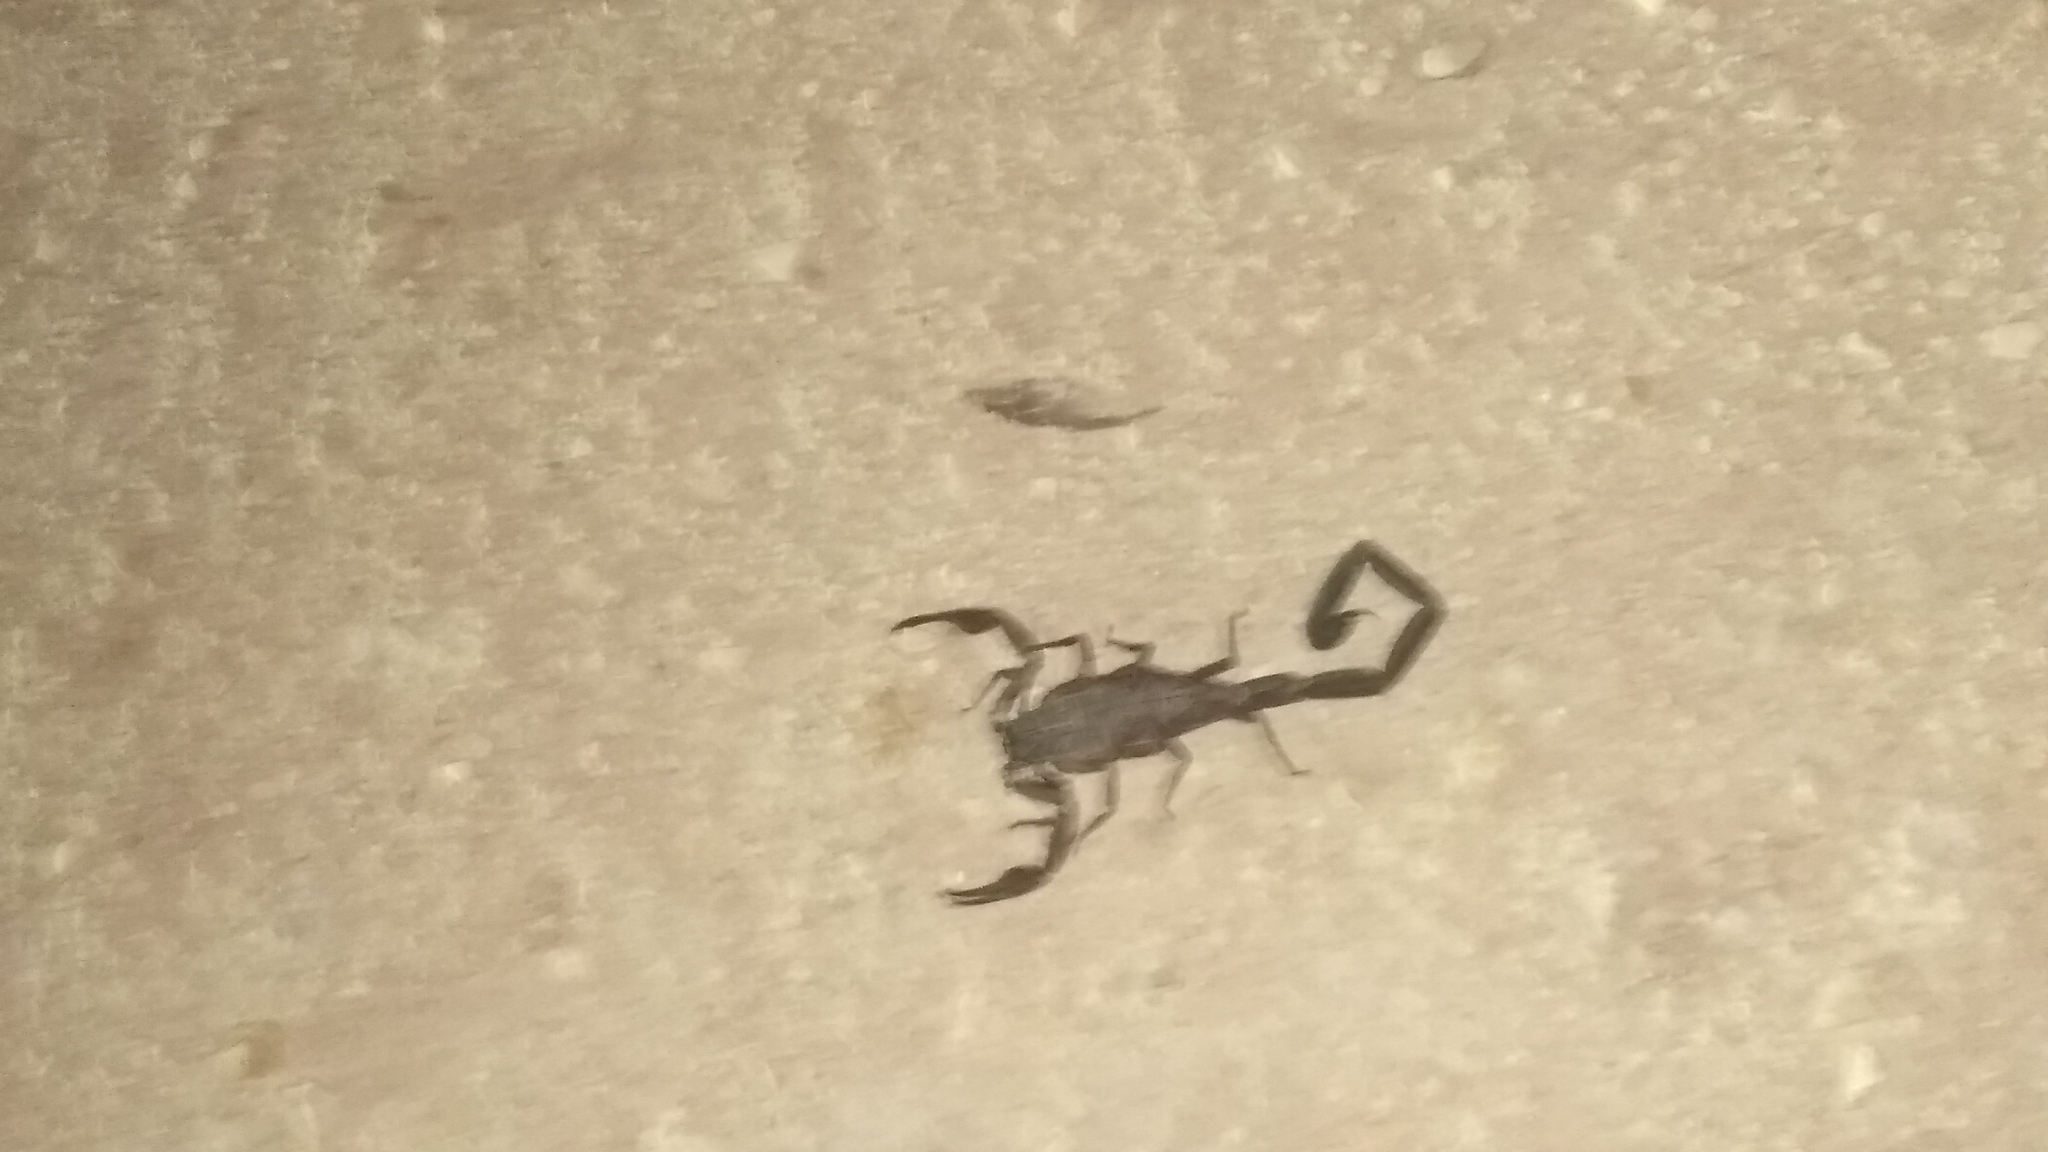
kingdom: Animalia
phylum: Arthropoda
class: Arachnida
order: Scorpiones
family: Buthidae
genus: Centruroides
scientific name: Centruroides gracilis
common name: Scorpions
